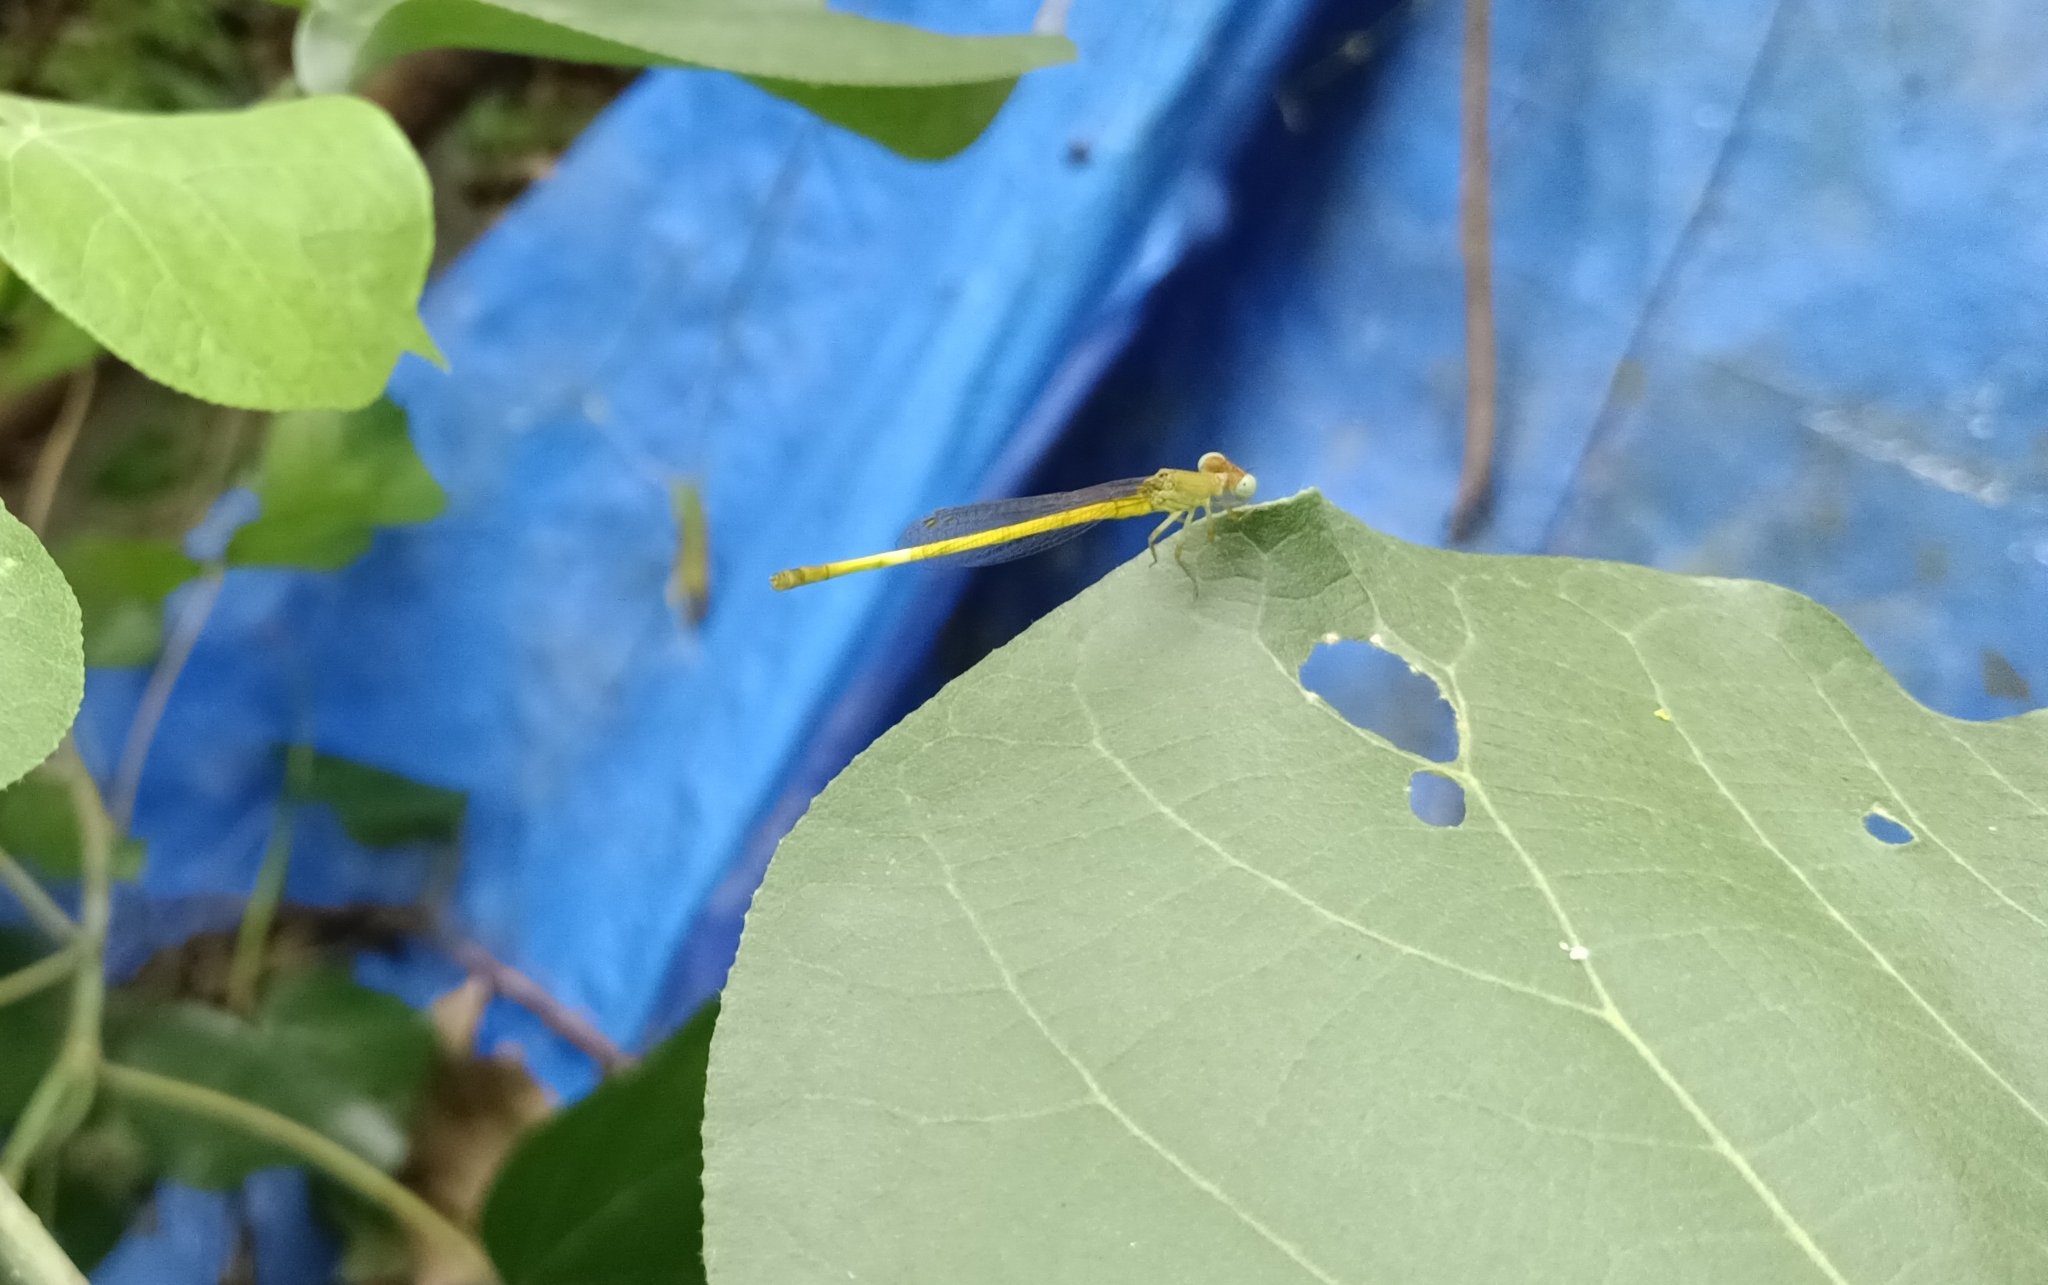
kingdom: Animalia
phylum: Arthropoda
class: Insecta
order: Odonata
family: Coenagrionidae
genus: Ceriagrion
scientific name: Ceriagrion coromandelianum
